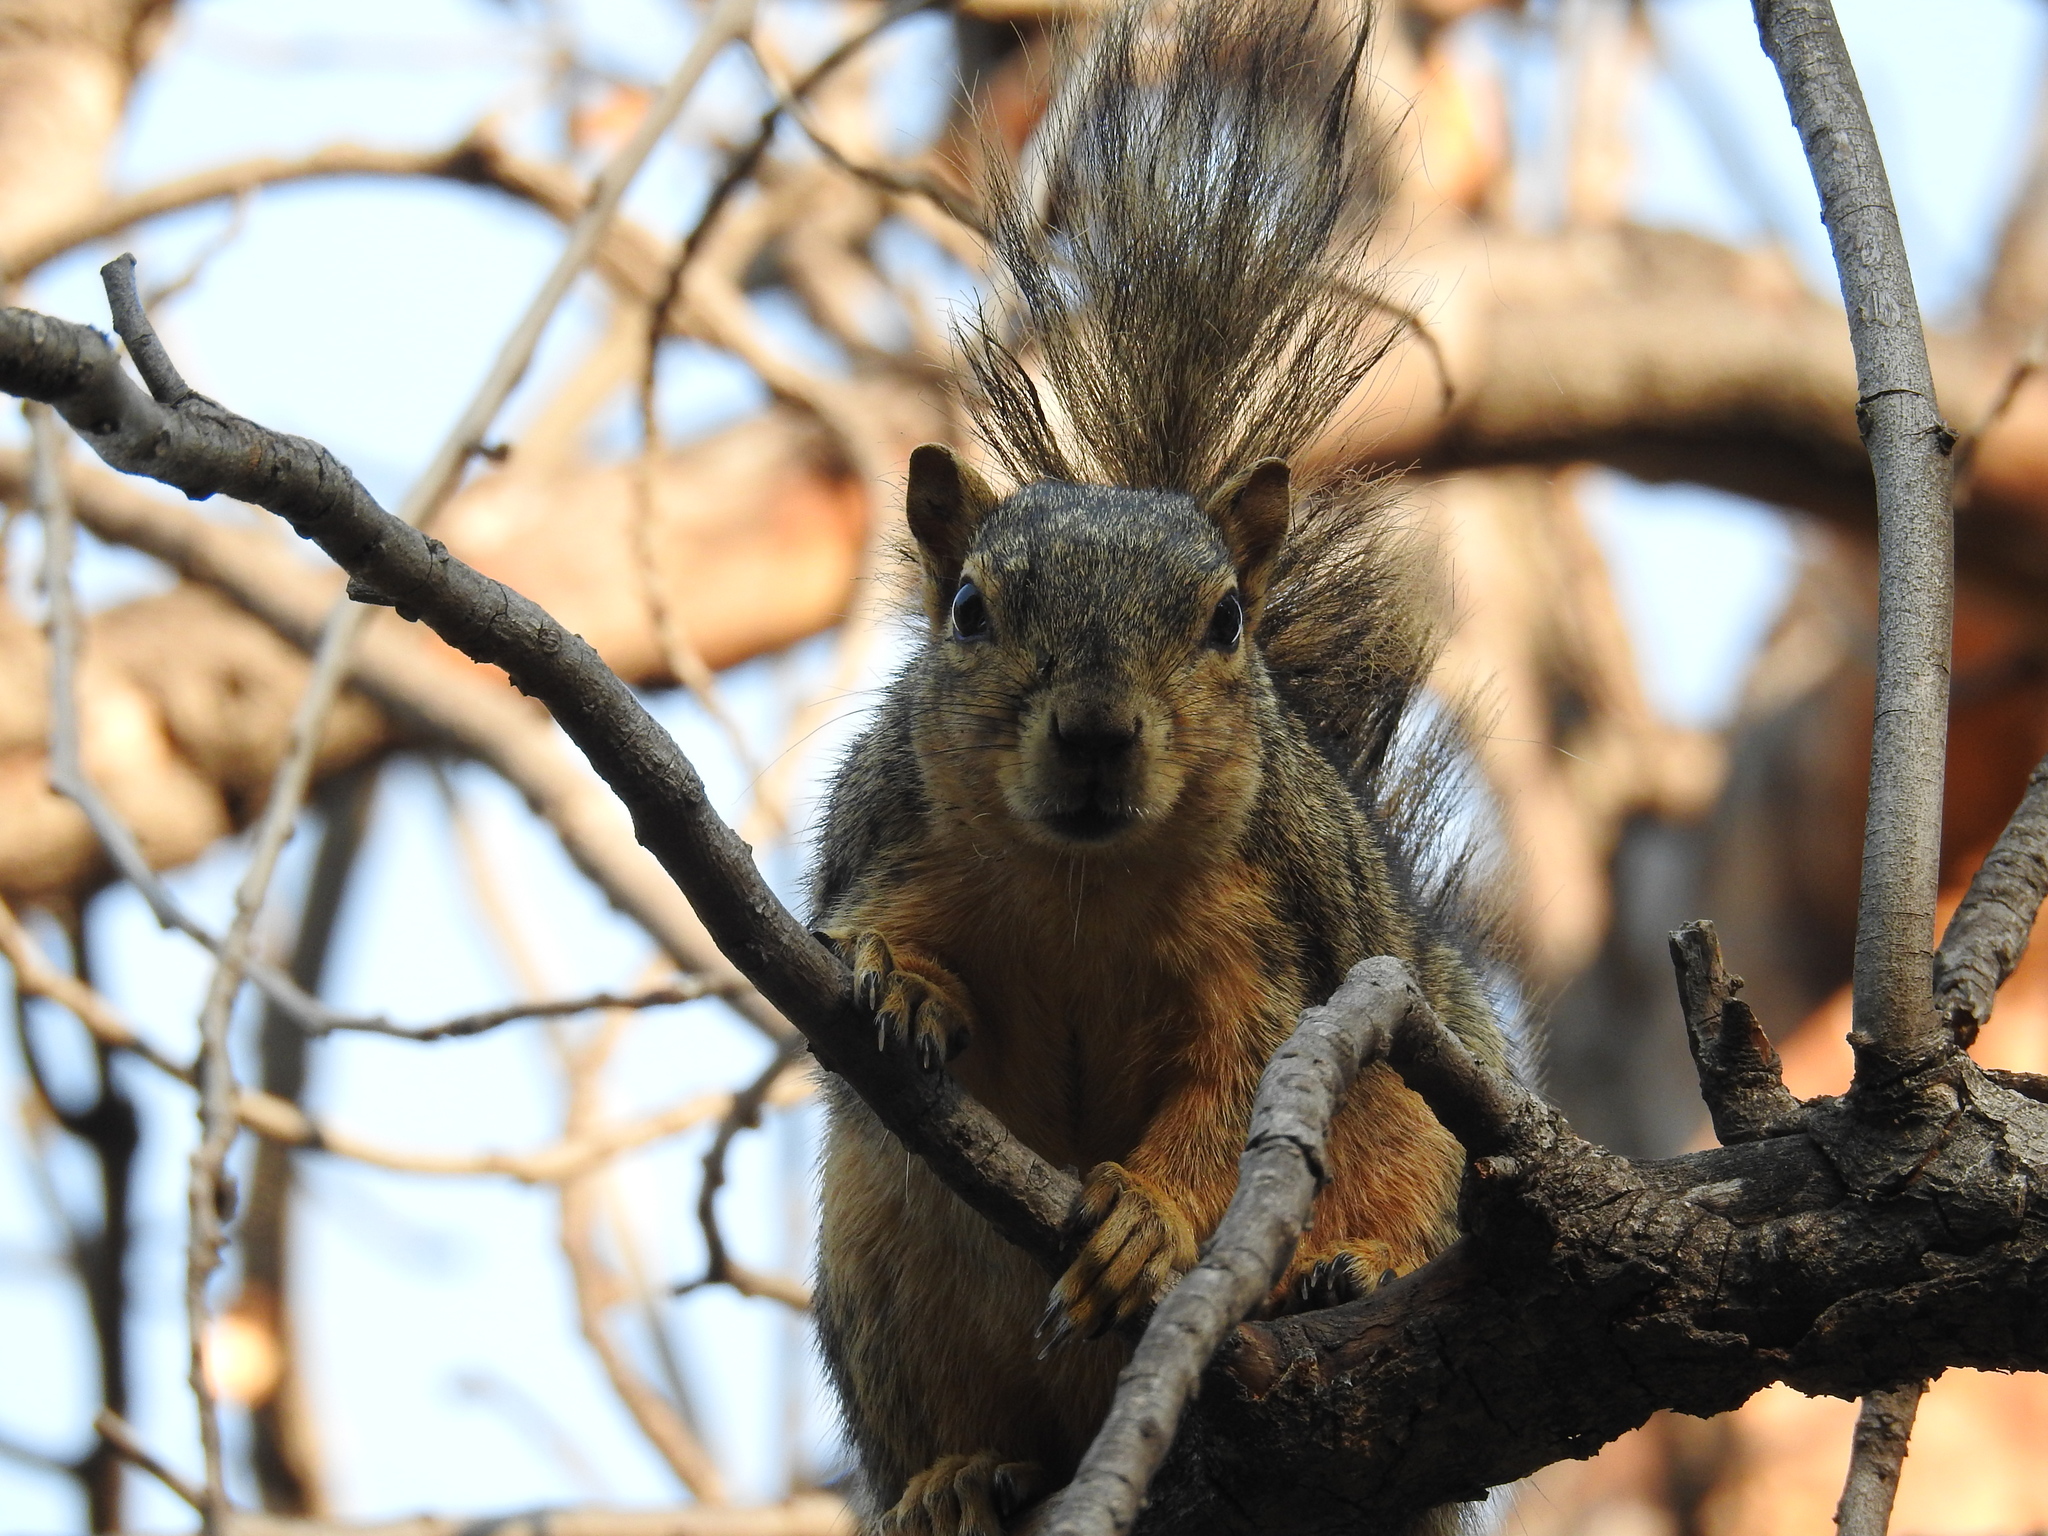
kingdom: Animalia
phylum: Chordata
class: Mammalia
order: Rodentia
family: Sciuridae
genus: Sciurus
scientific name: Sciurus niger
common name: Fox squirrel
